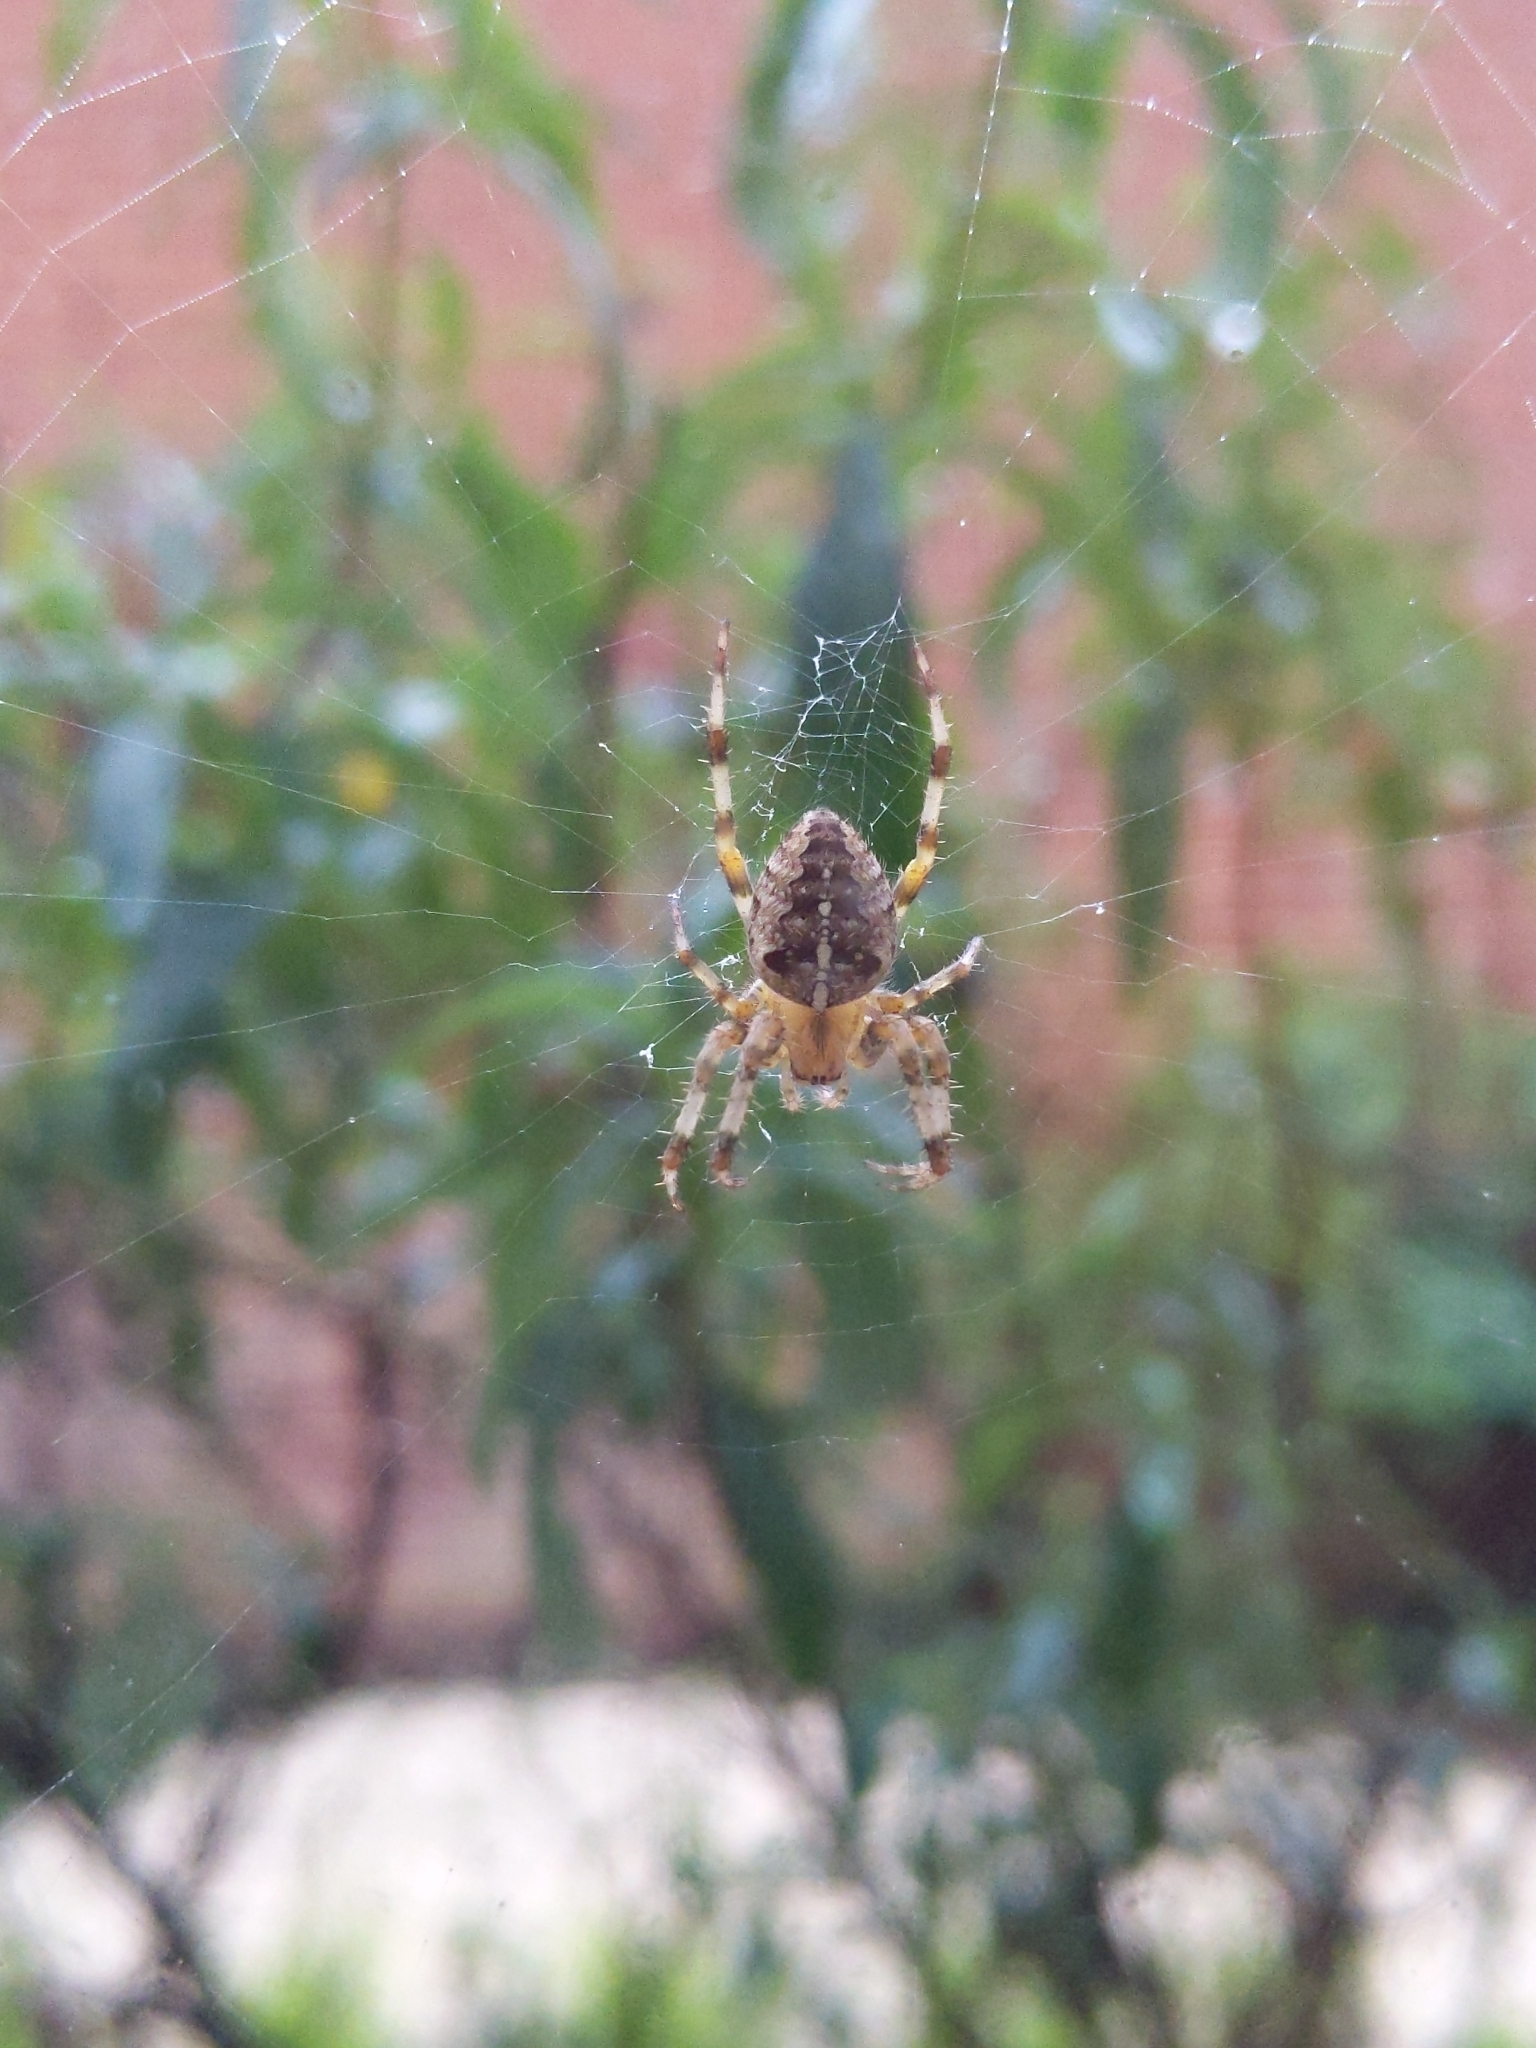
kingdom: Animalia
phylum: Arthropoda
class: Arachnida
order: Araneae
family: Araneidae
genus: Araneus
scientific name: Araneus diadematus
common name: Cross orbweaver
